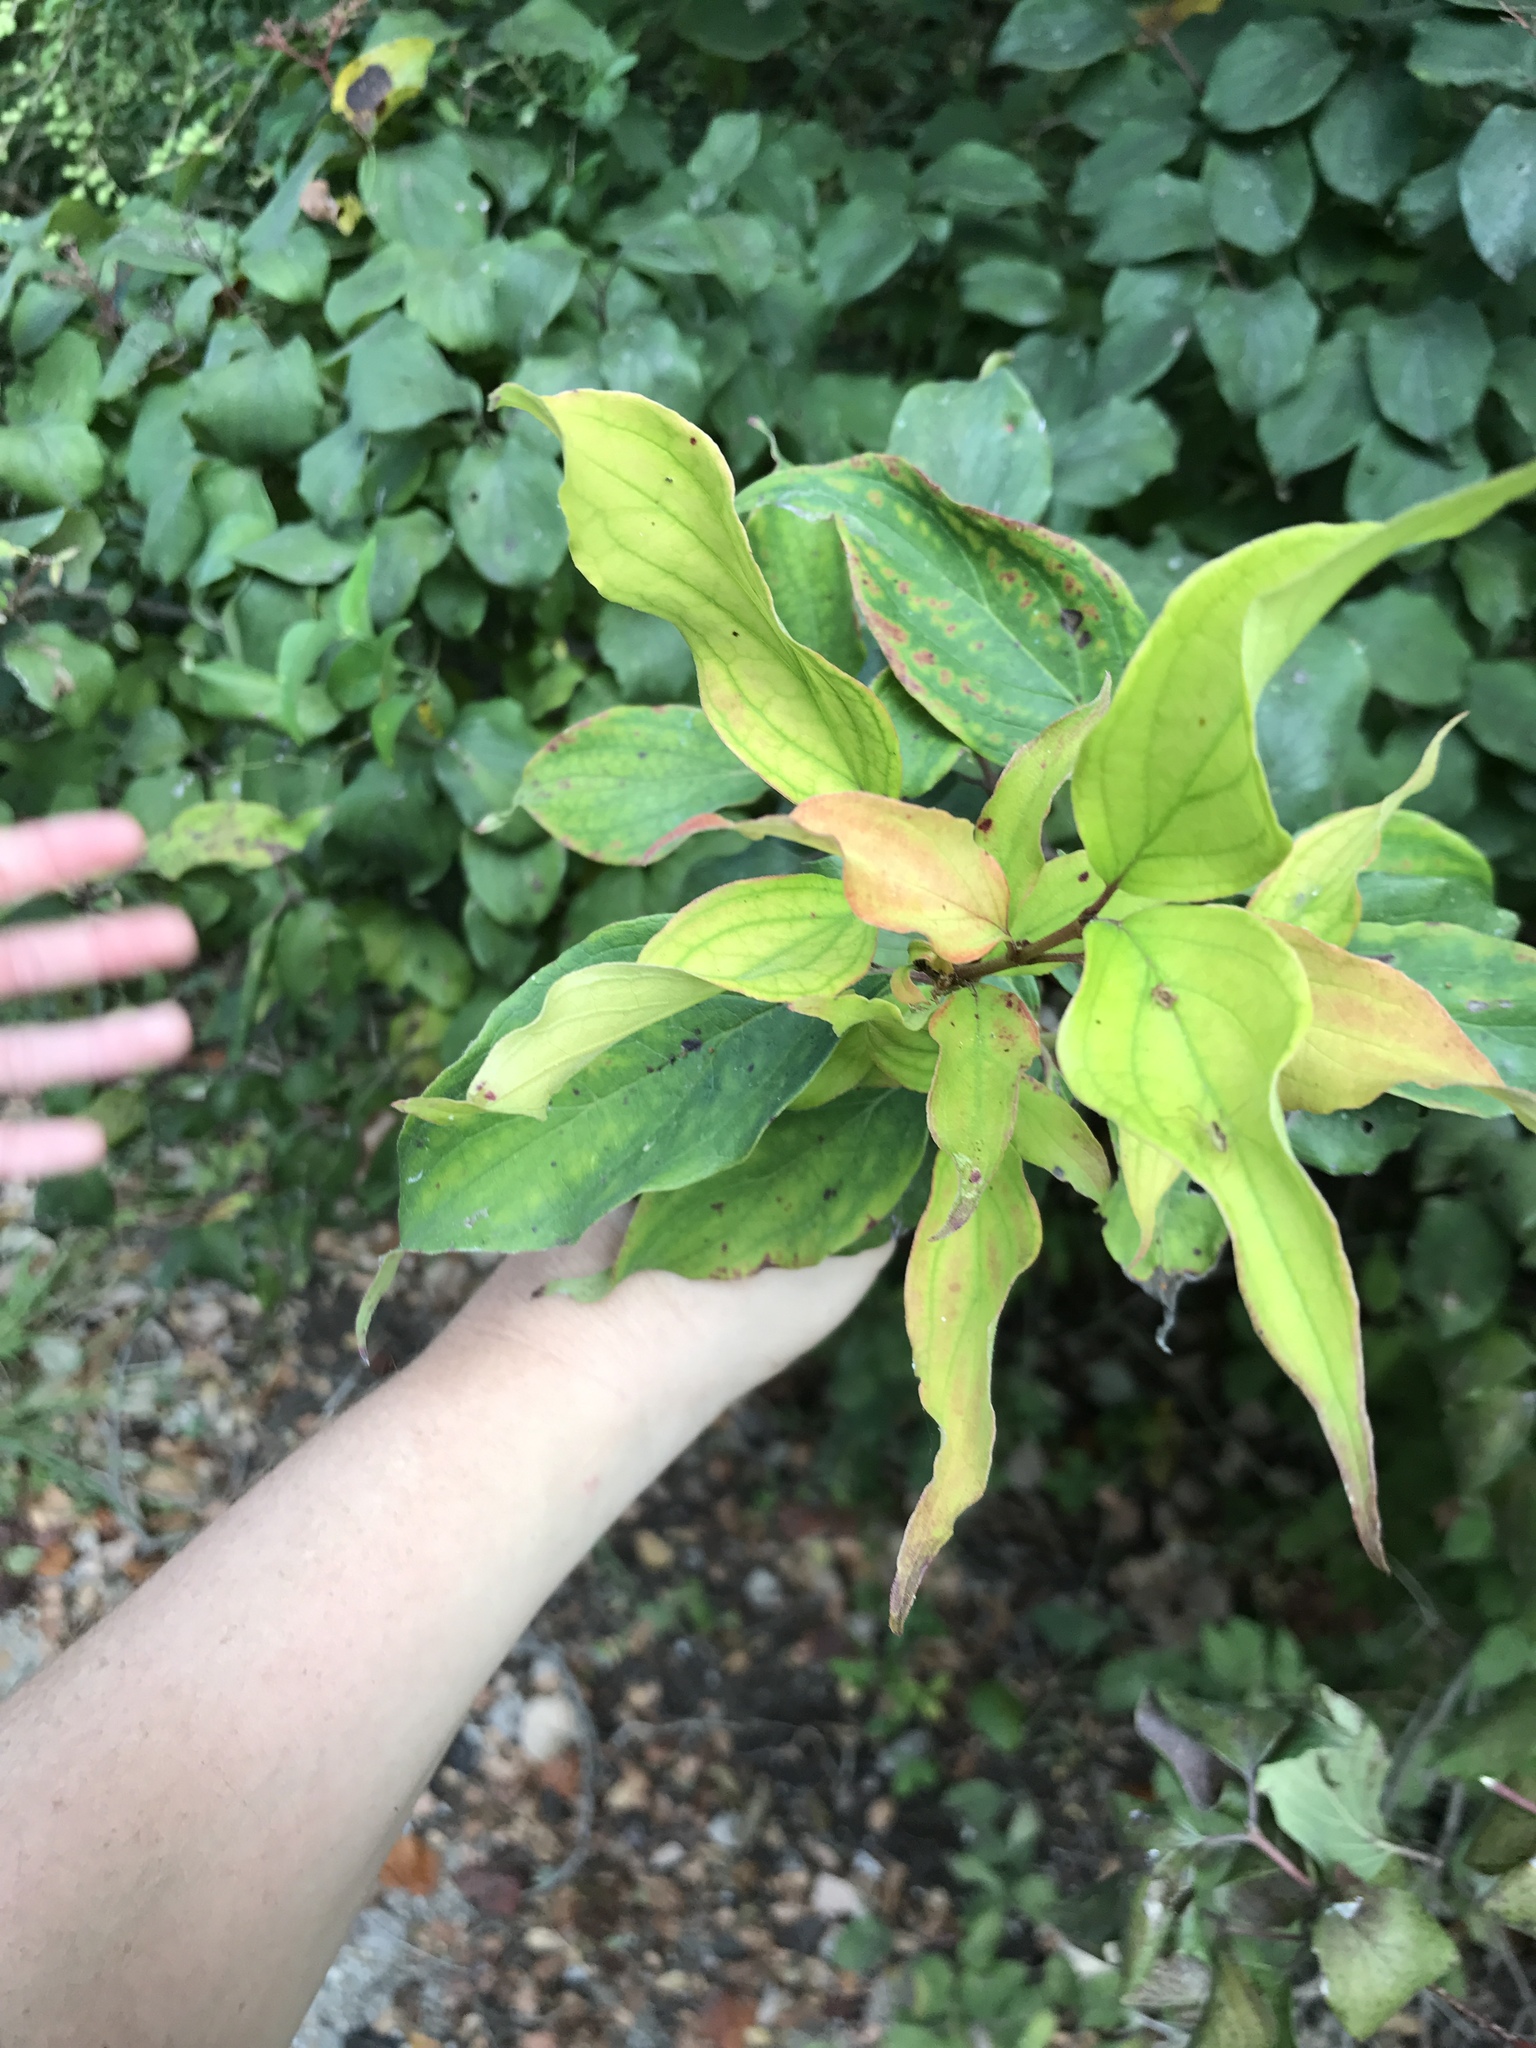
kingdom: Plantae
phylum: Tracheophyta
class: Magnoliopsida
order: Cornales
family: Cornaceae
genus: Cornus
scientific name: Cornus drummondii
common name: Rough-leaf dogwood
